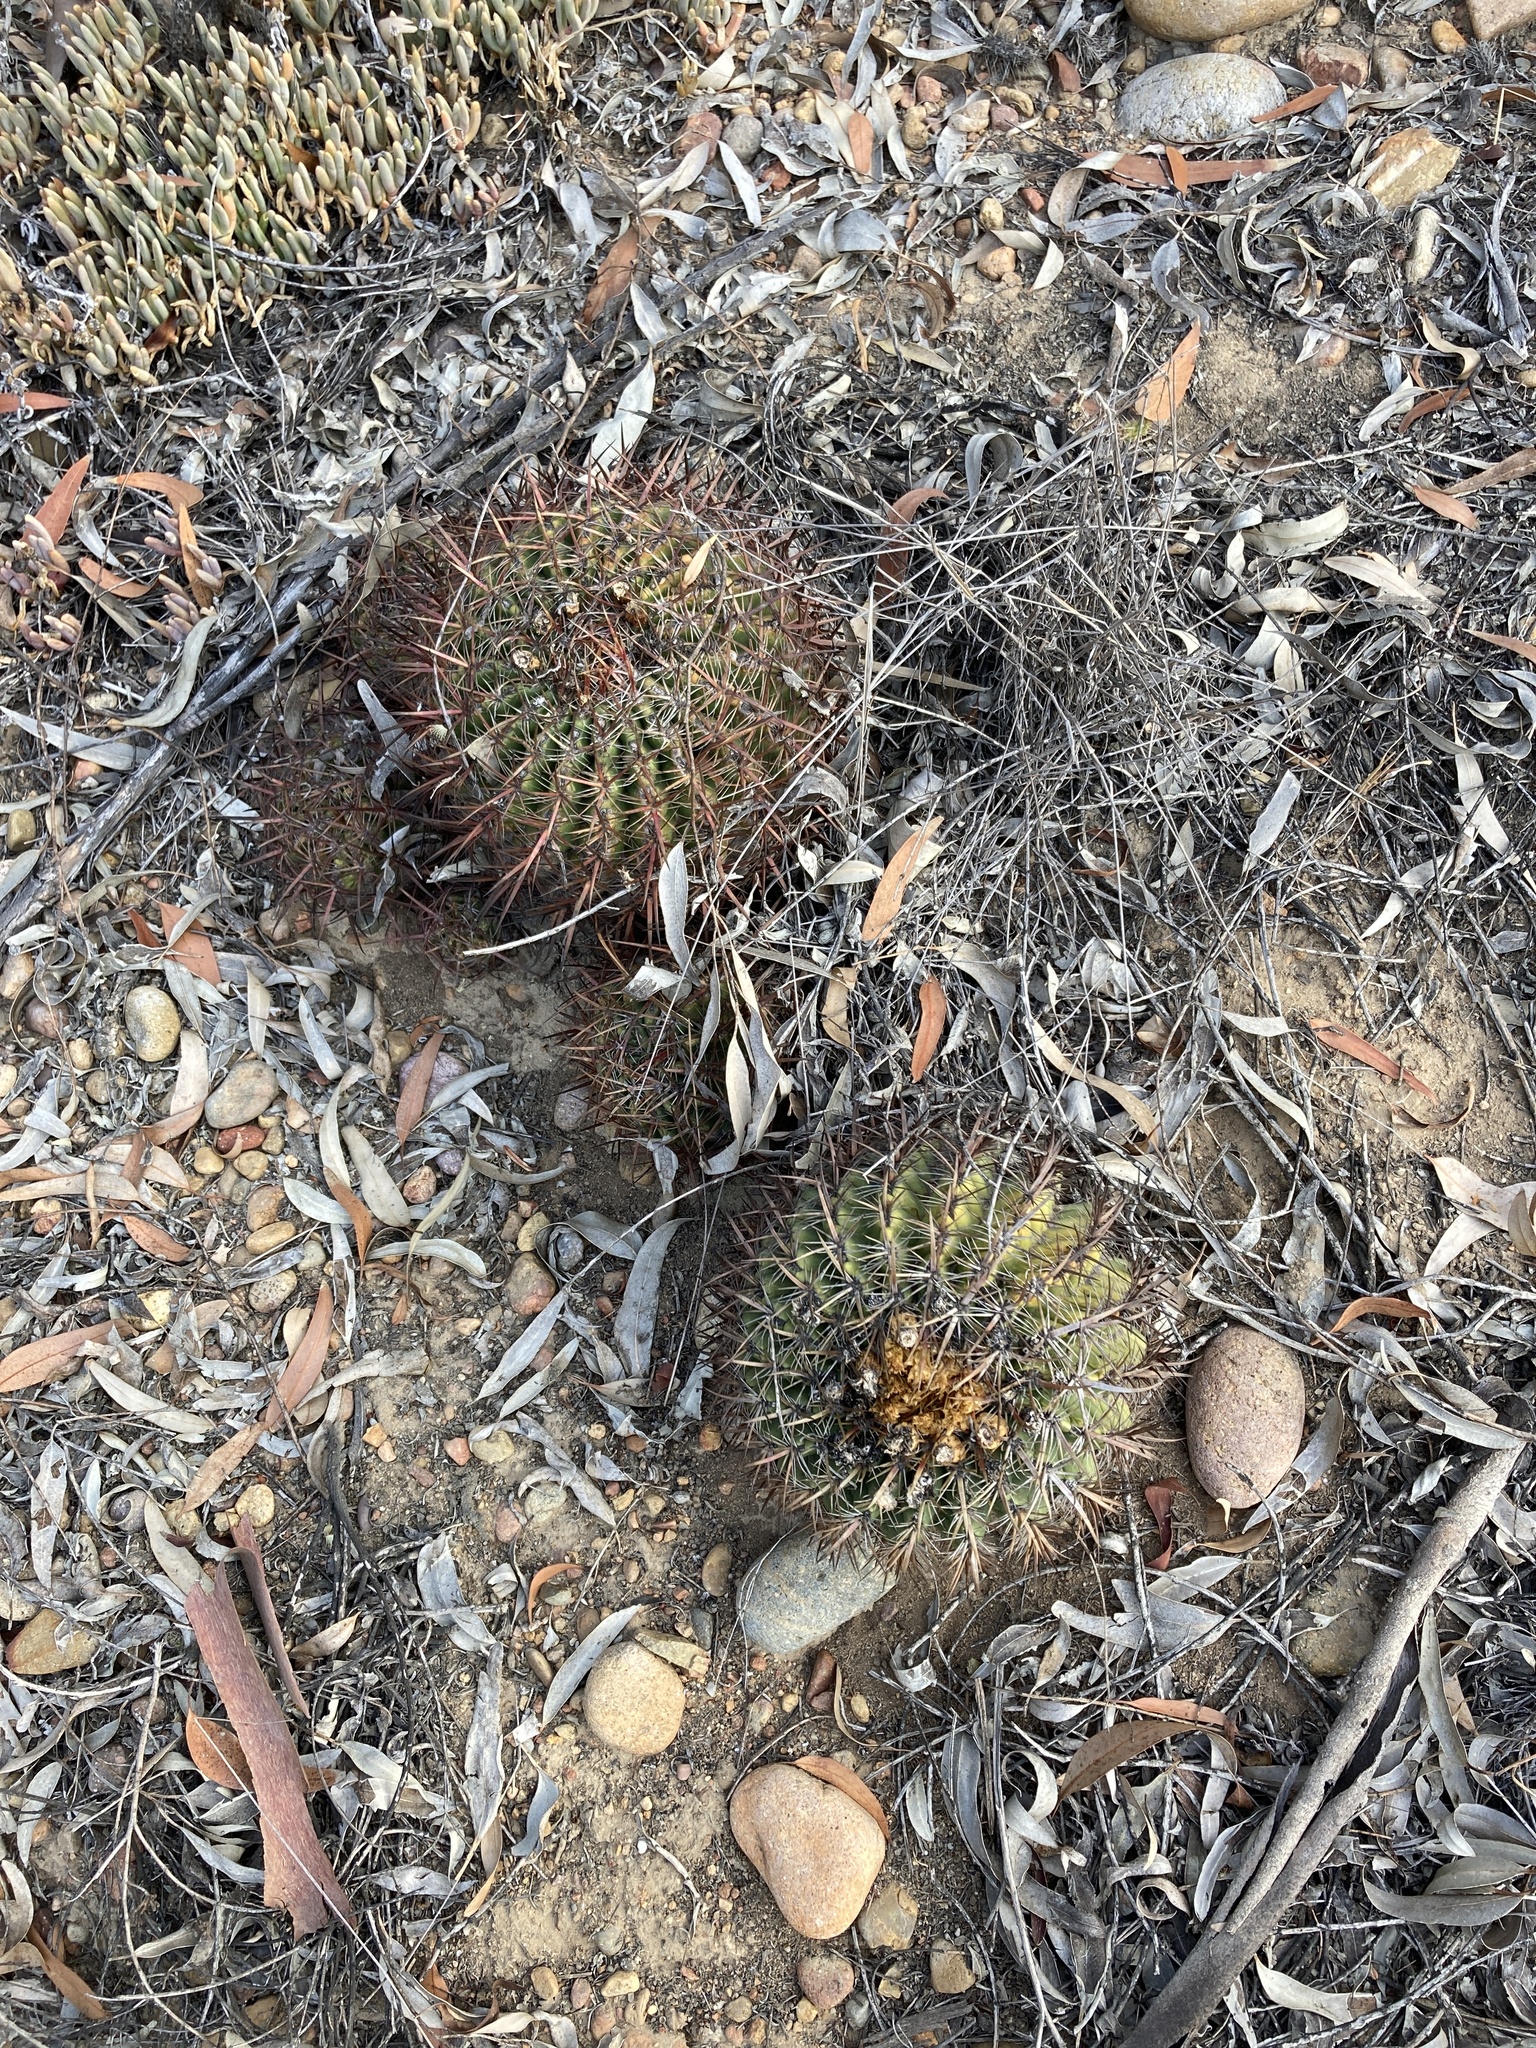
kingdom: Plantae
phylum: Tracheophyta
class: Magnoliopsida
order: Caryophyllales
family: Cactaceae
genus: Ferocactus
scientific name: Ferocactus viridescens
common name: San diego barrel cactus
